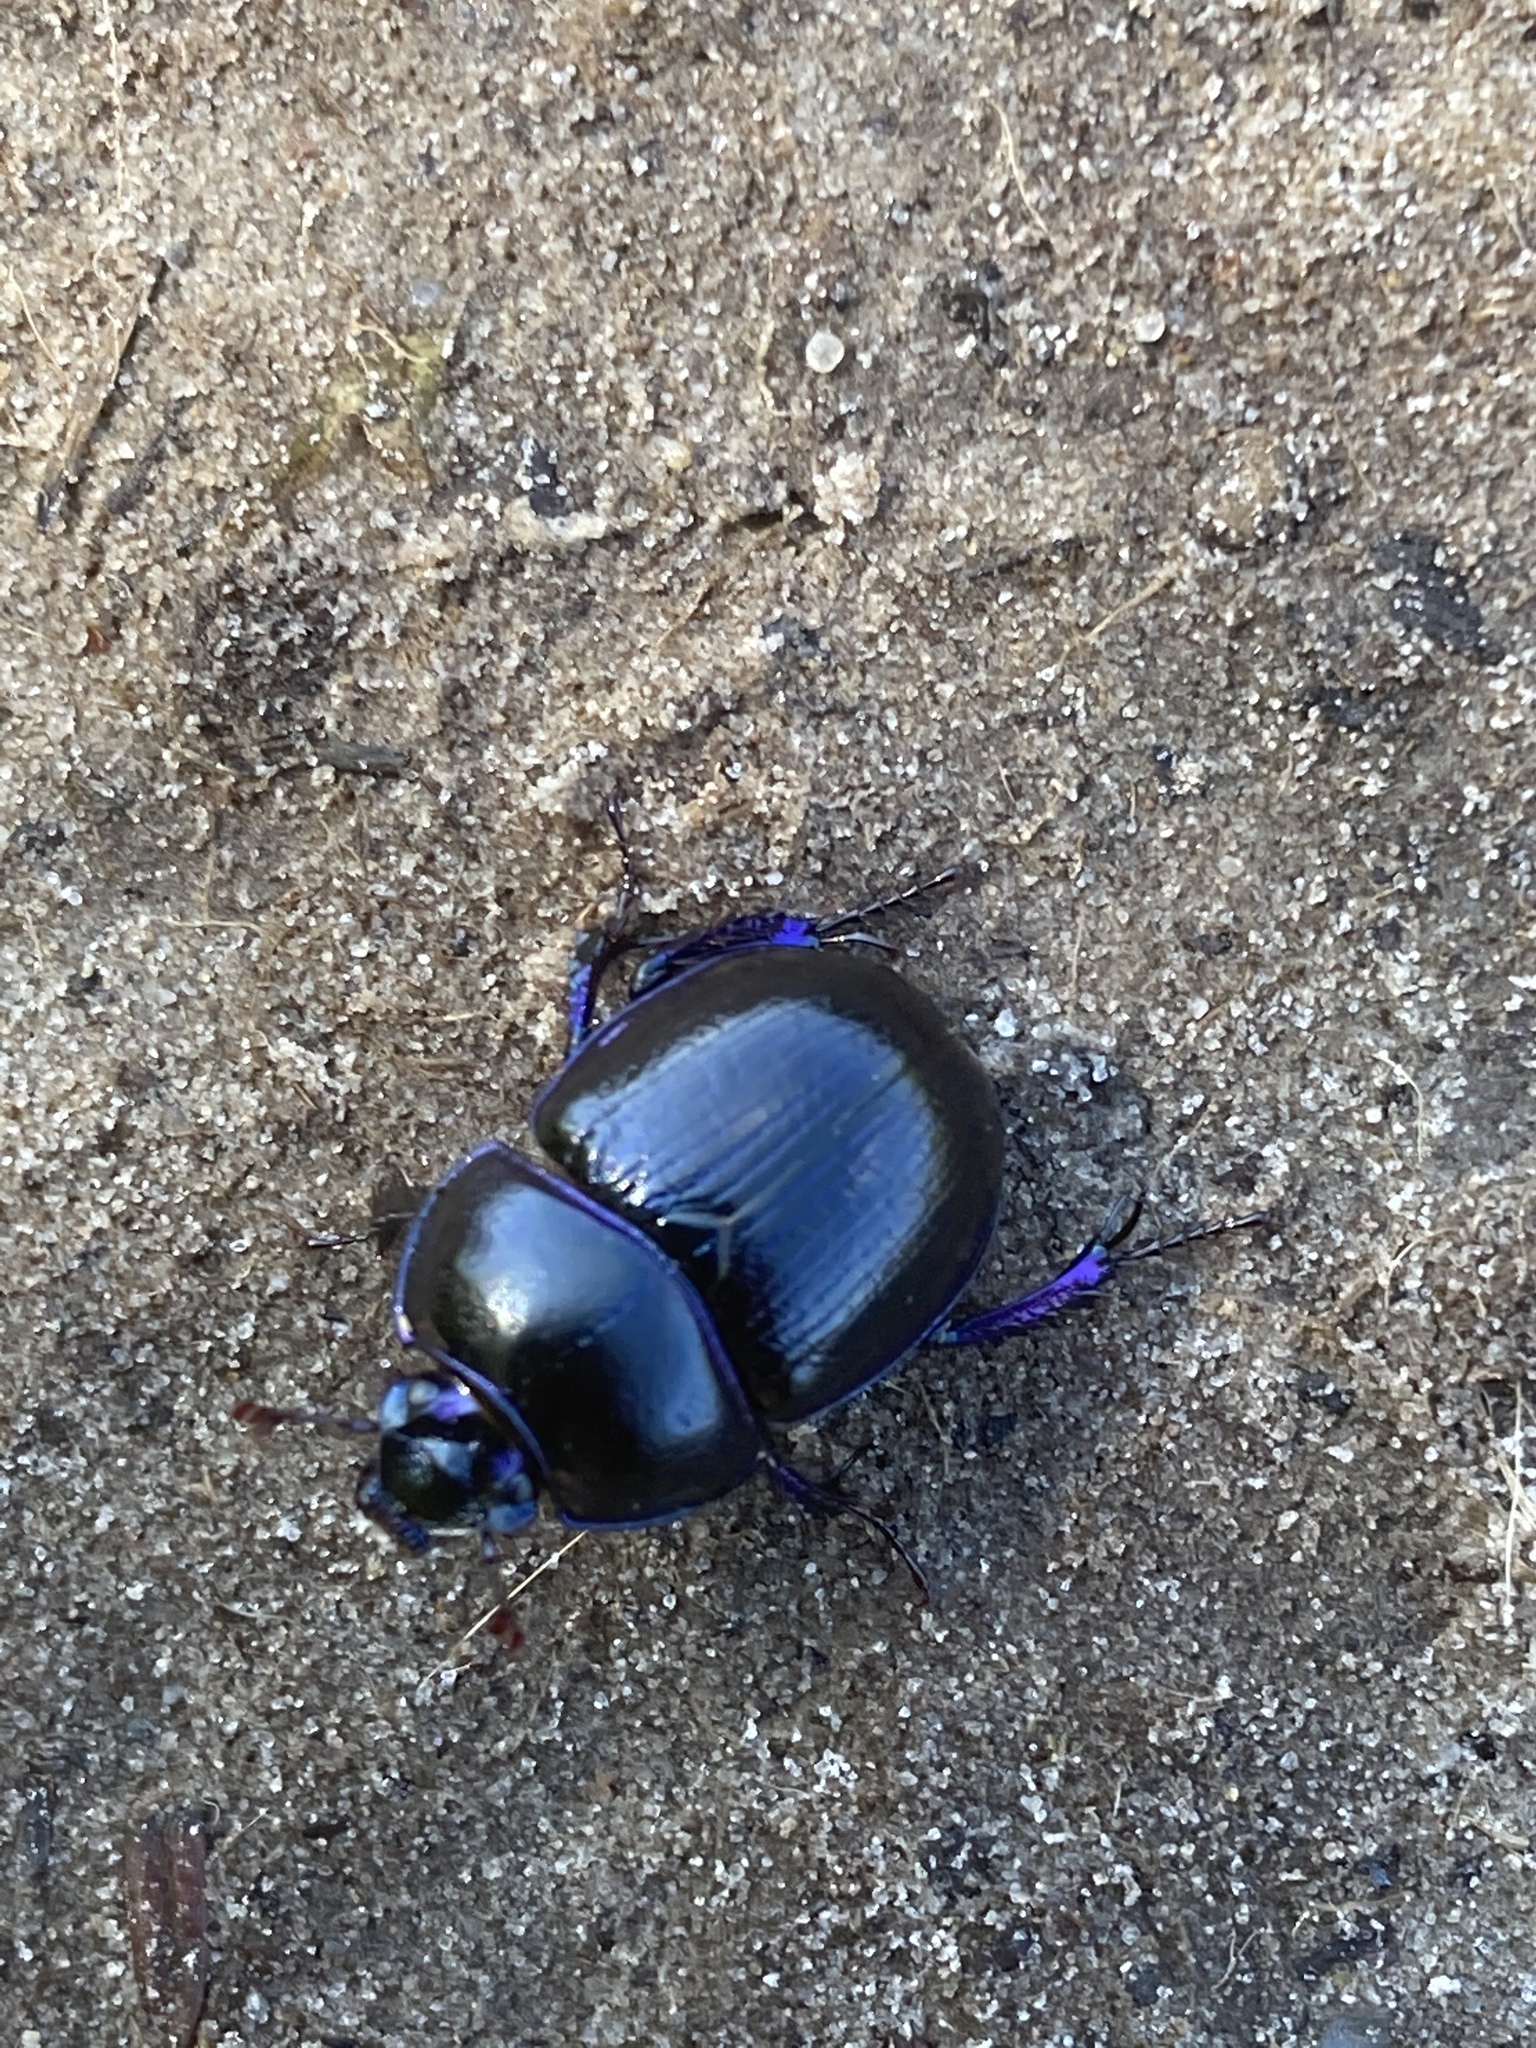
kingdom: Animalia
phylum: Arthropoda
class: Insecta
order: Coleoptera
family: Geotrupidae
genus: Anoplotrupes
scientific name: Anoplotrupes stercorosus
